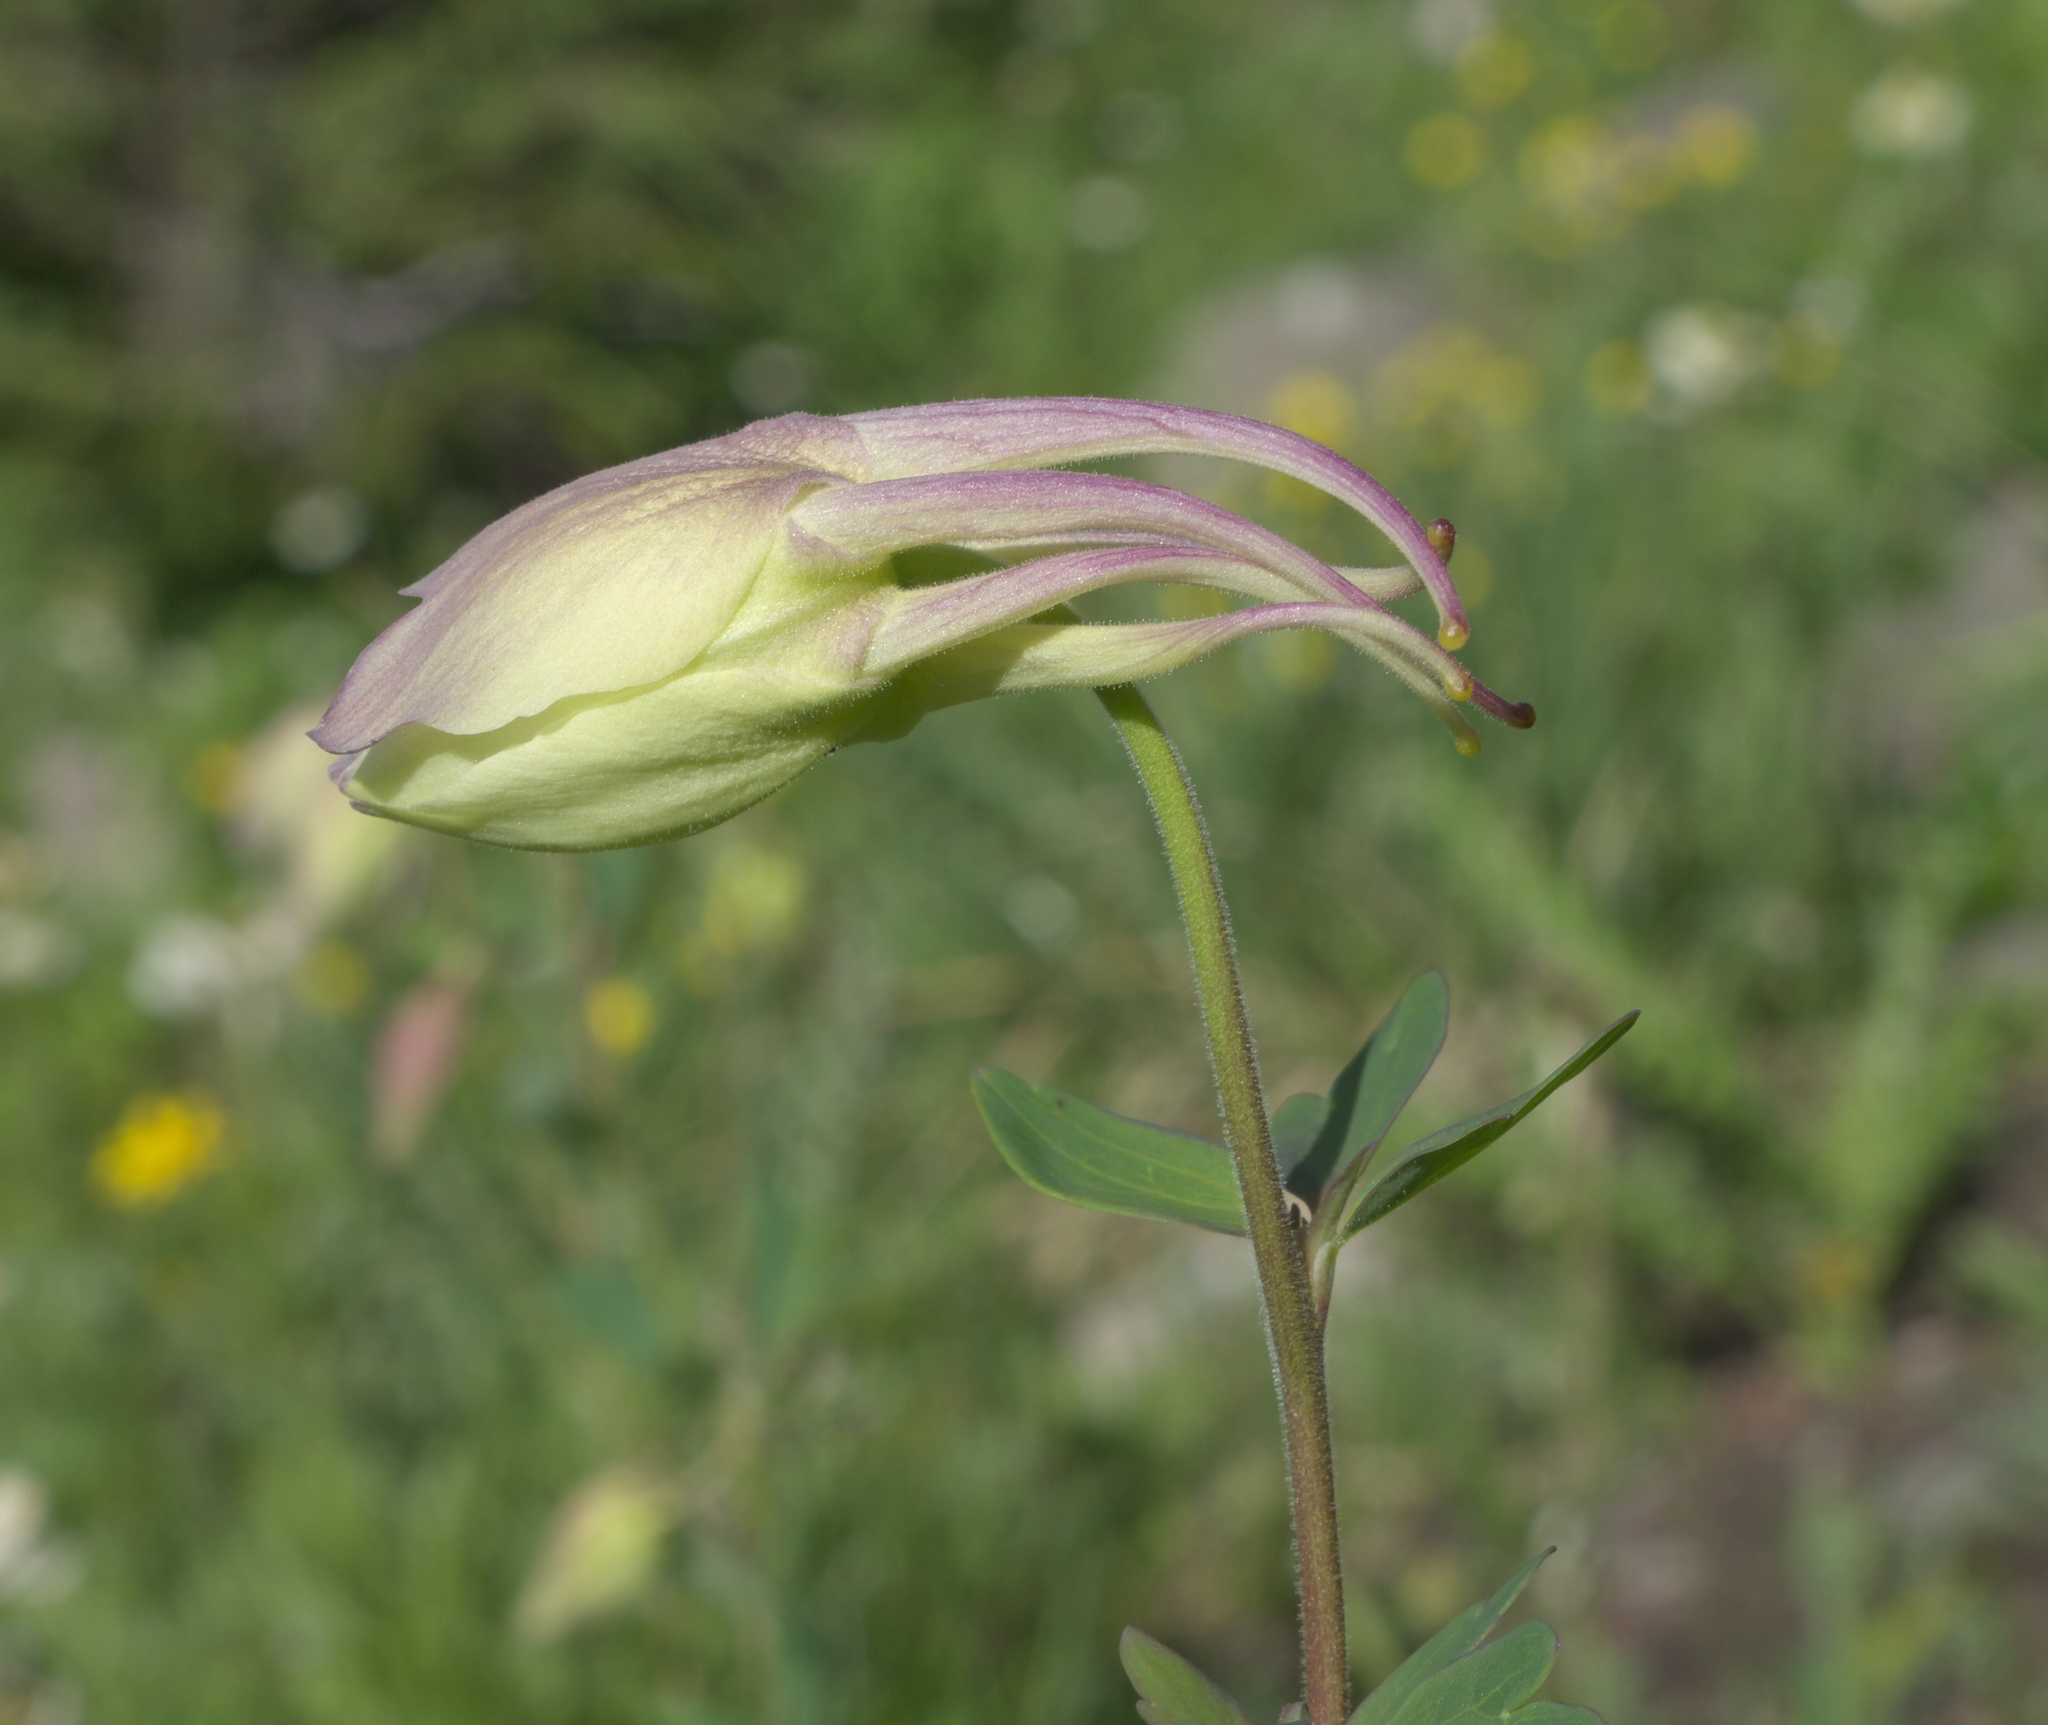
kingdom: Plantae
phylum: Tracheophyta
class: Magnoliopsida
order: Ranunculales
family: Ranunculaceae
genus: Aquilegia
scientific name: Aquilegia coerulea
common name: Rocky mountain columbine
